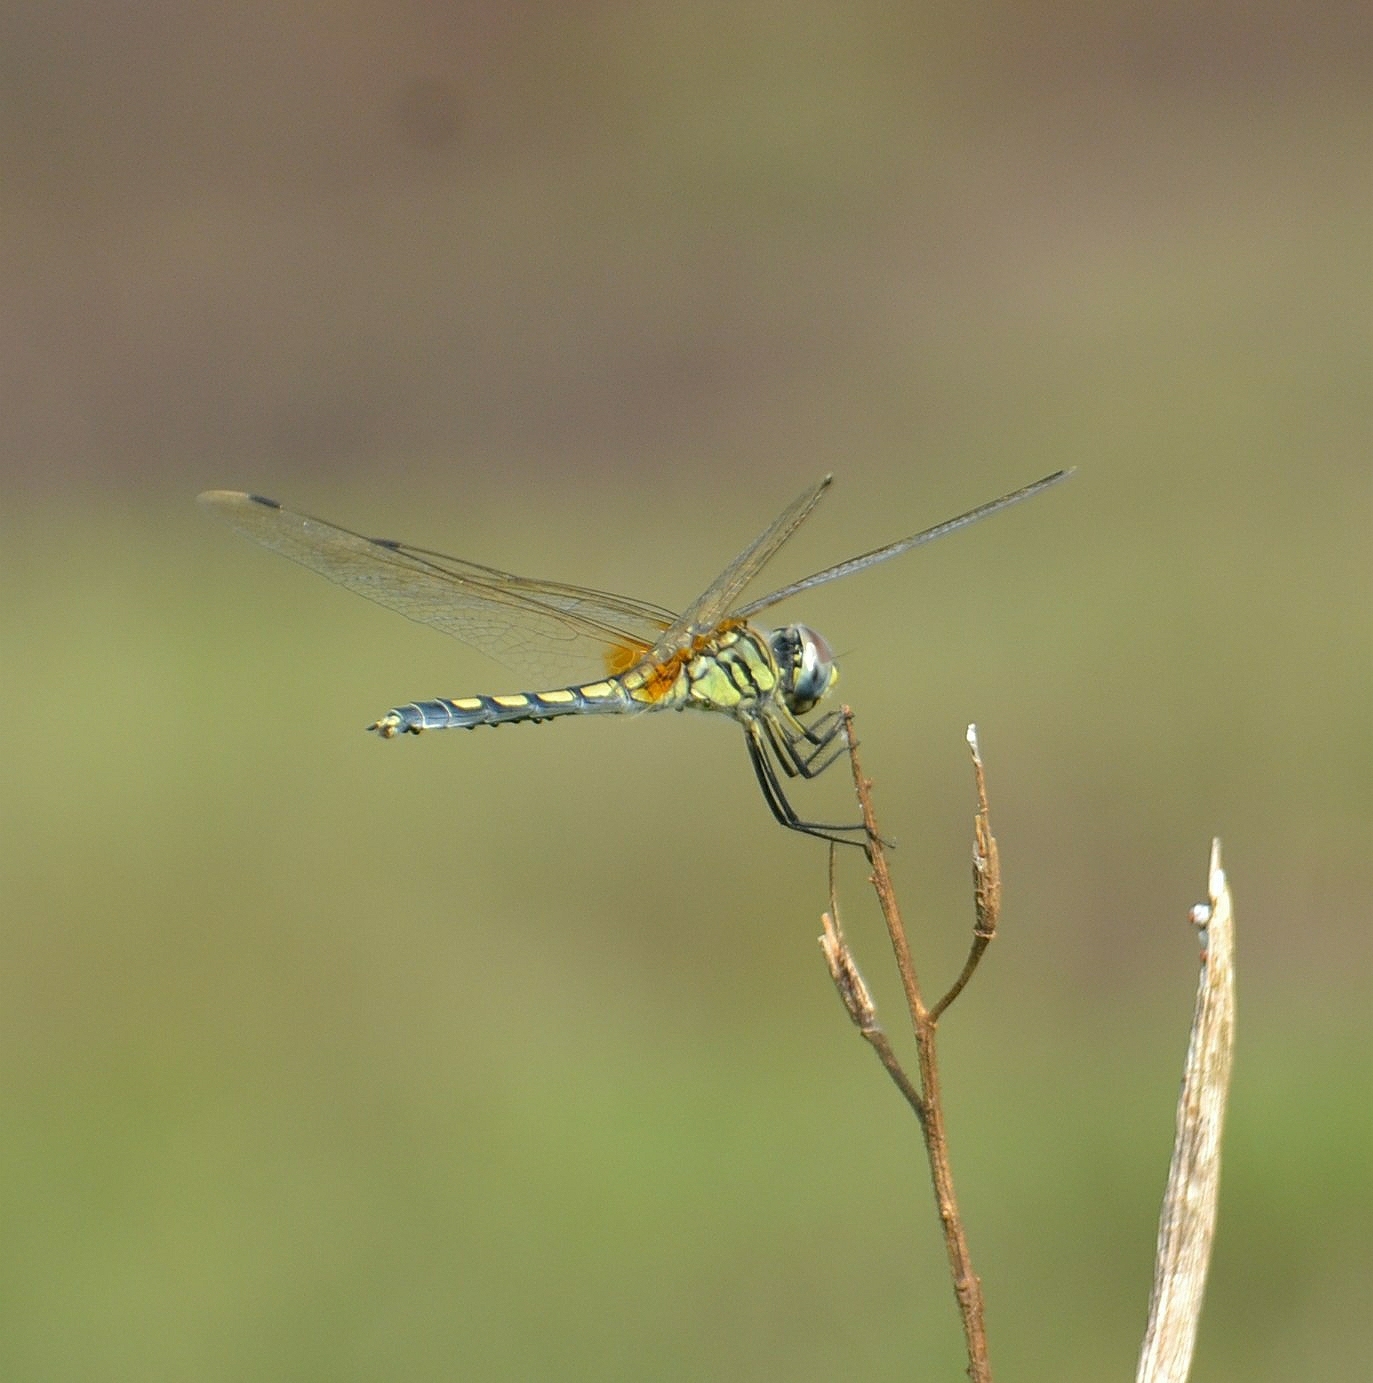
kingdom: Animalia
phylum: Arthropoda
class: Insecta
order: Odonata
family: Libellulidae
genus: Trithemis
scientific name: Trithemis pallidinervis
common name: Dancing dropwing
